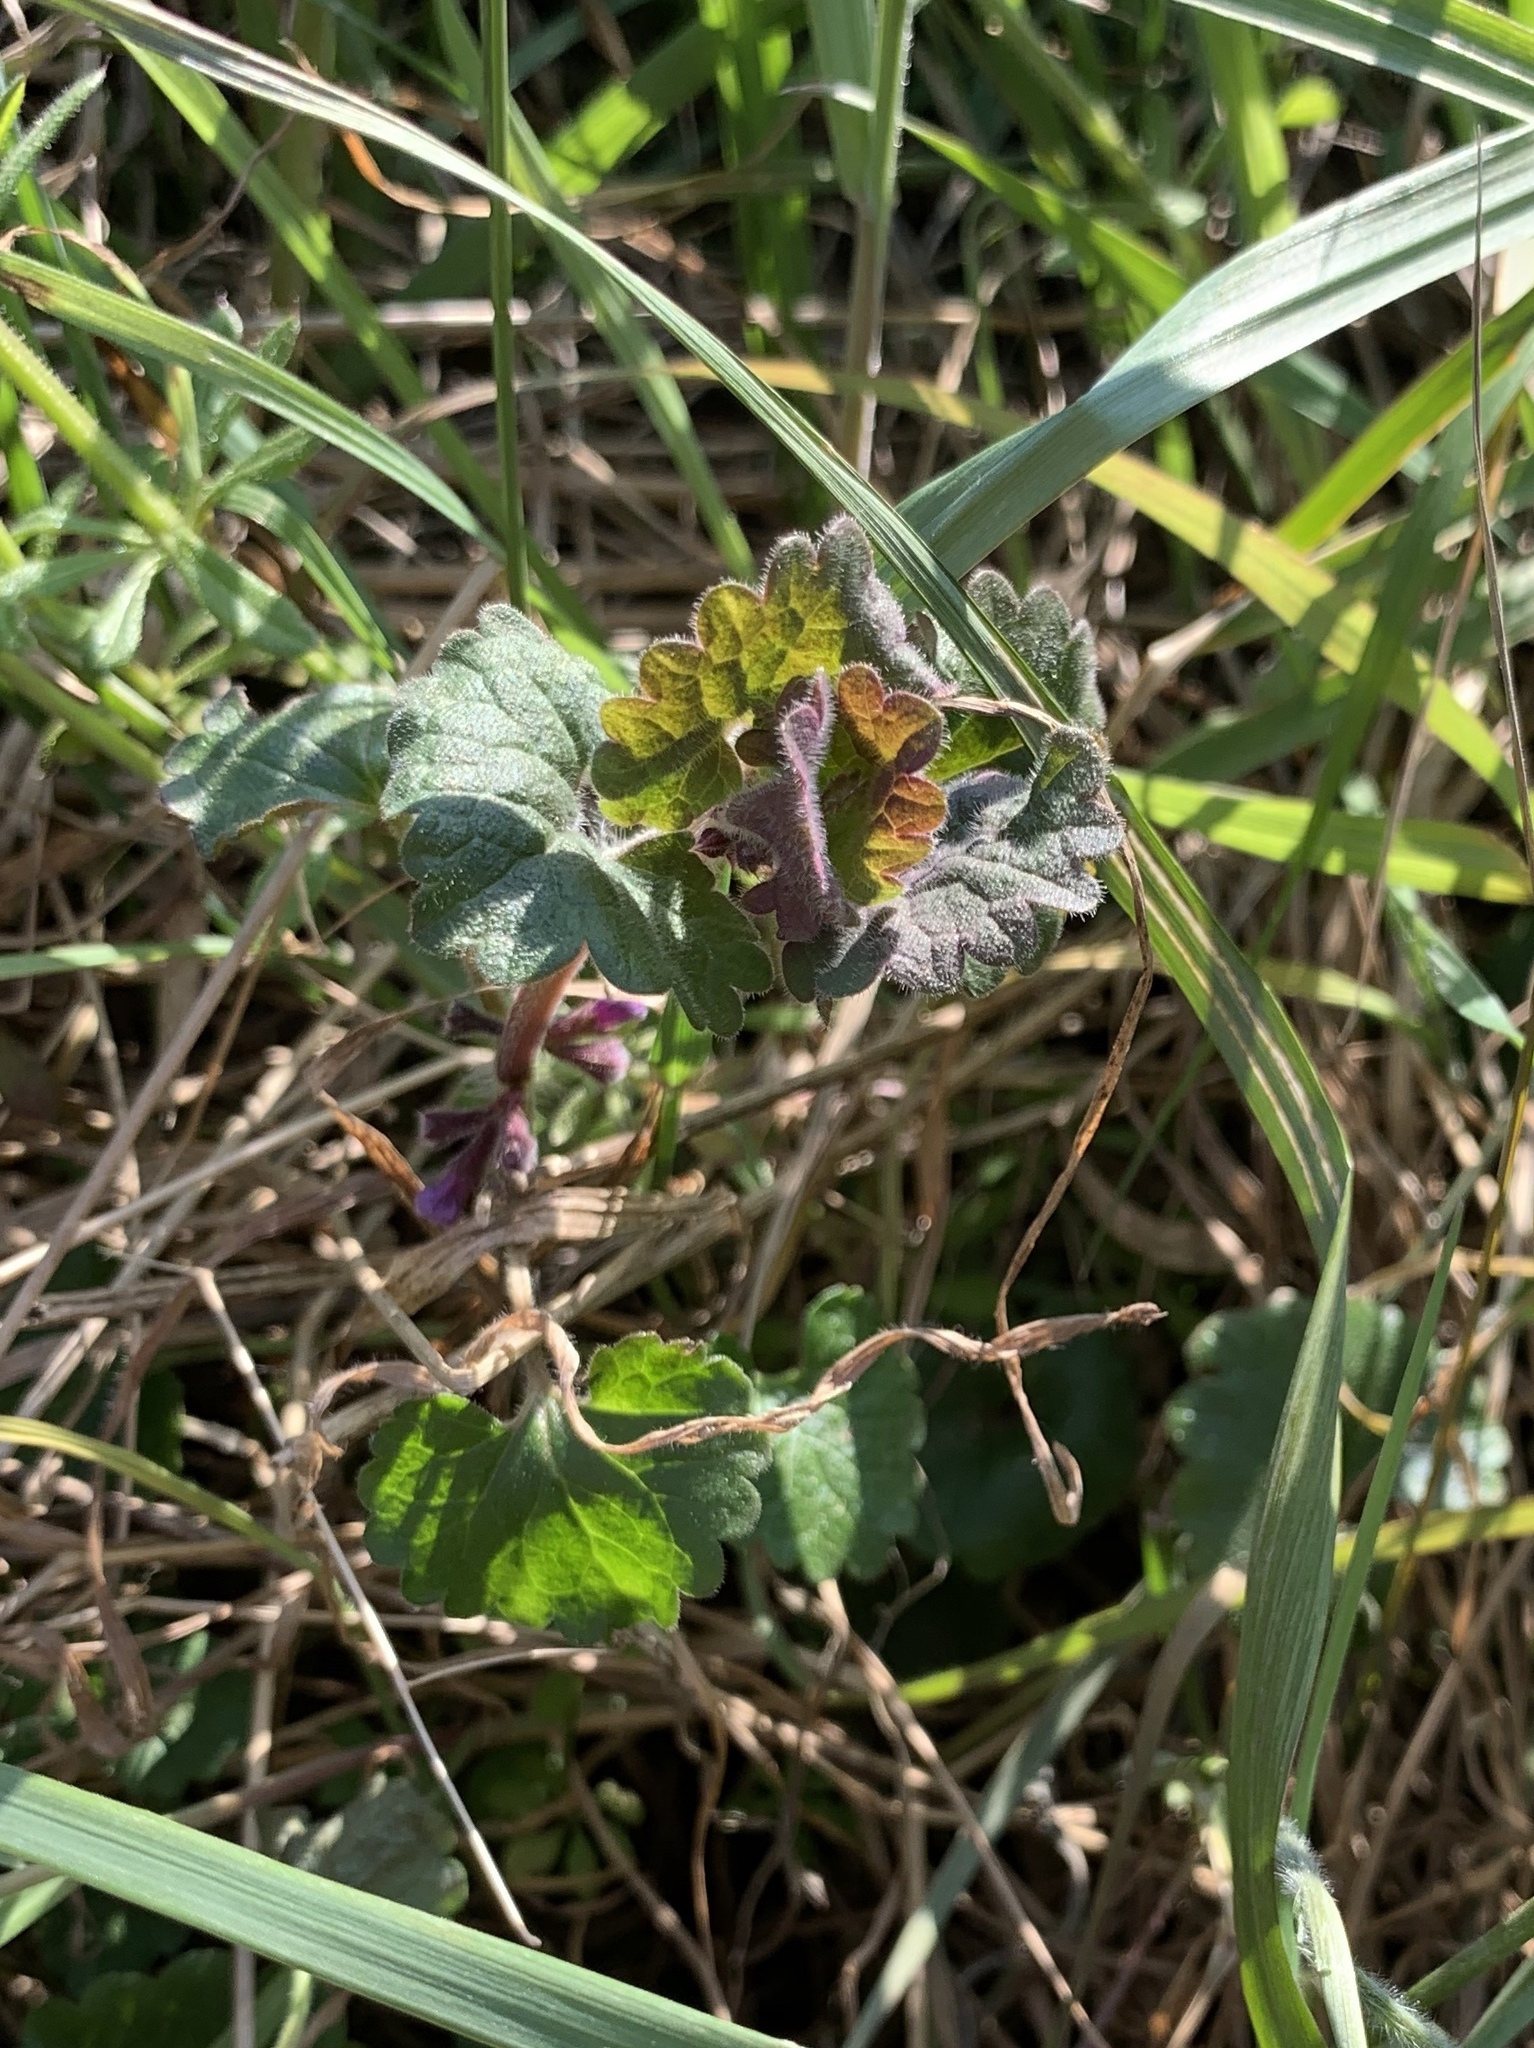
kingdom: Plantae
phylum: Tracheophyta
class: Magnoliopsida
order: Lamiales
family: Lamiaceae
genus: Glechoma
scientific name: Glechoma hederacea
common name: Ground ivy
